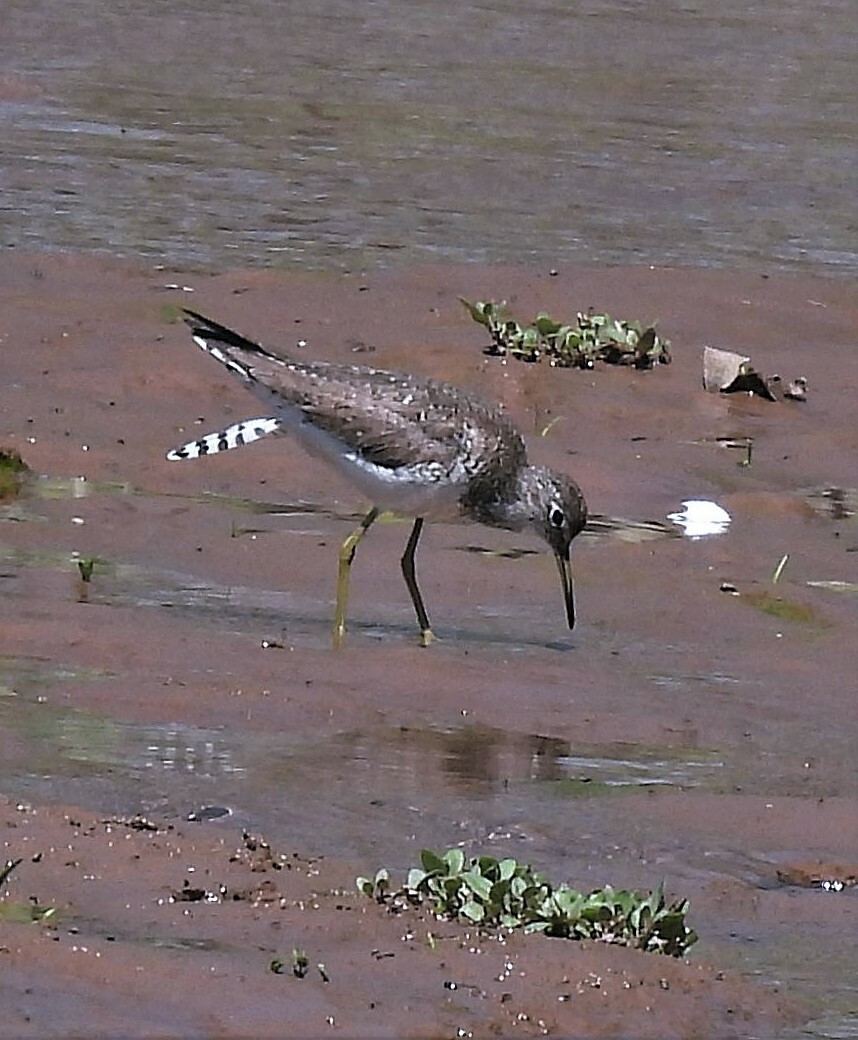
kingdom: Animalia
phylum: Chordata
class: Aves
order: Charadriiformes
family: Scolopacidae
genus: Tringa
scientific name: Tringa solitaria
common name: Solitary sandpiper
